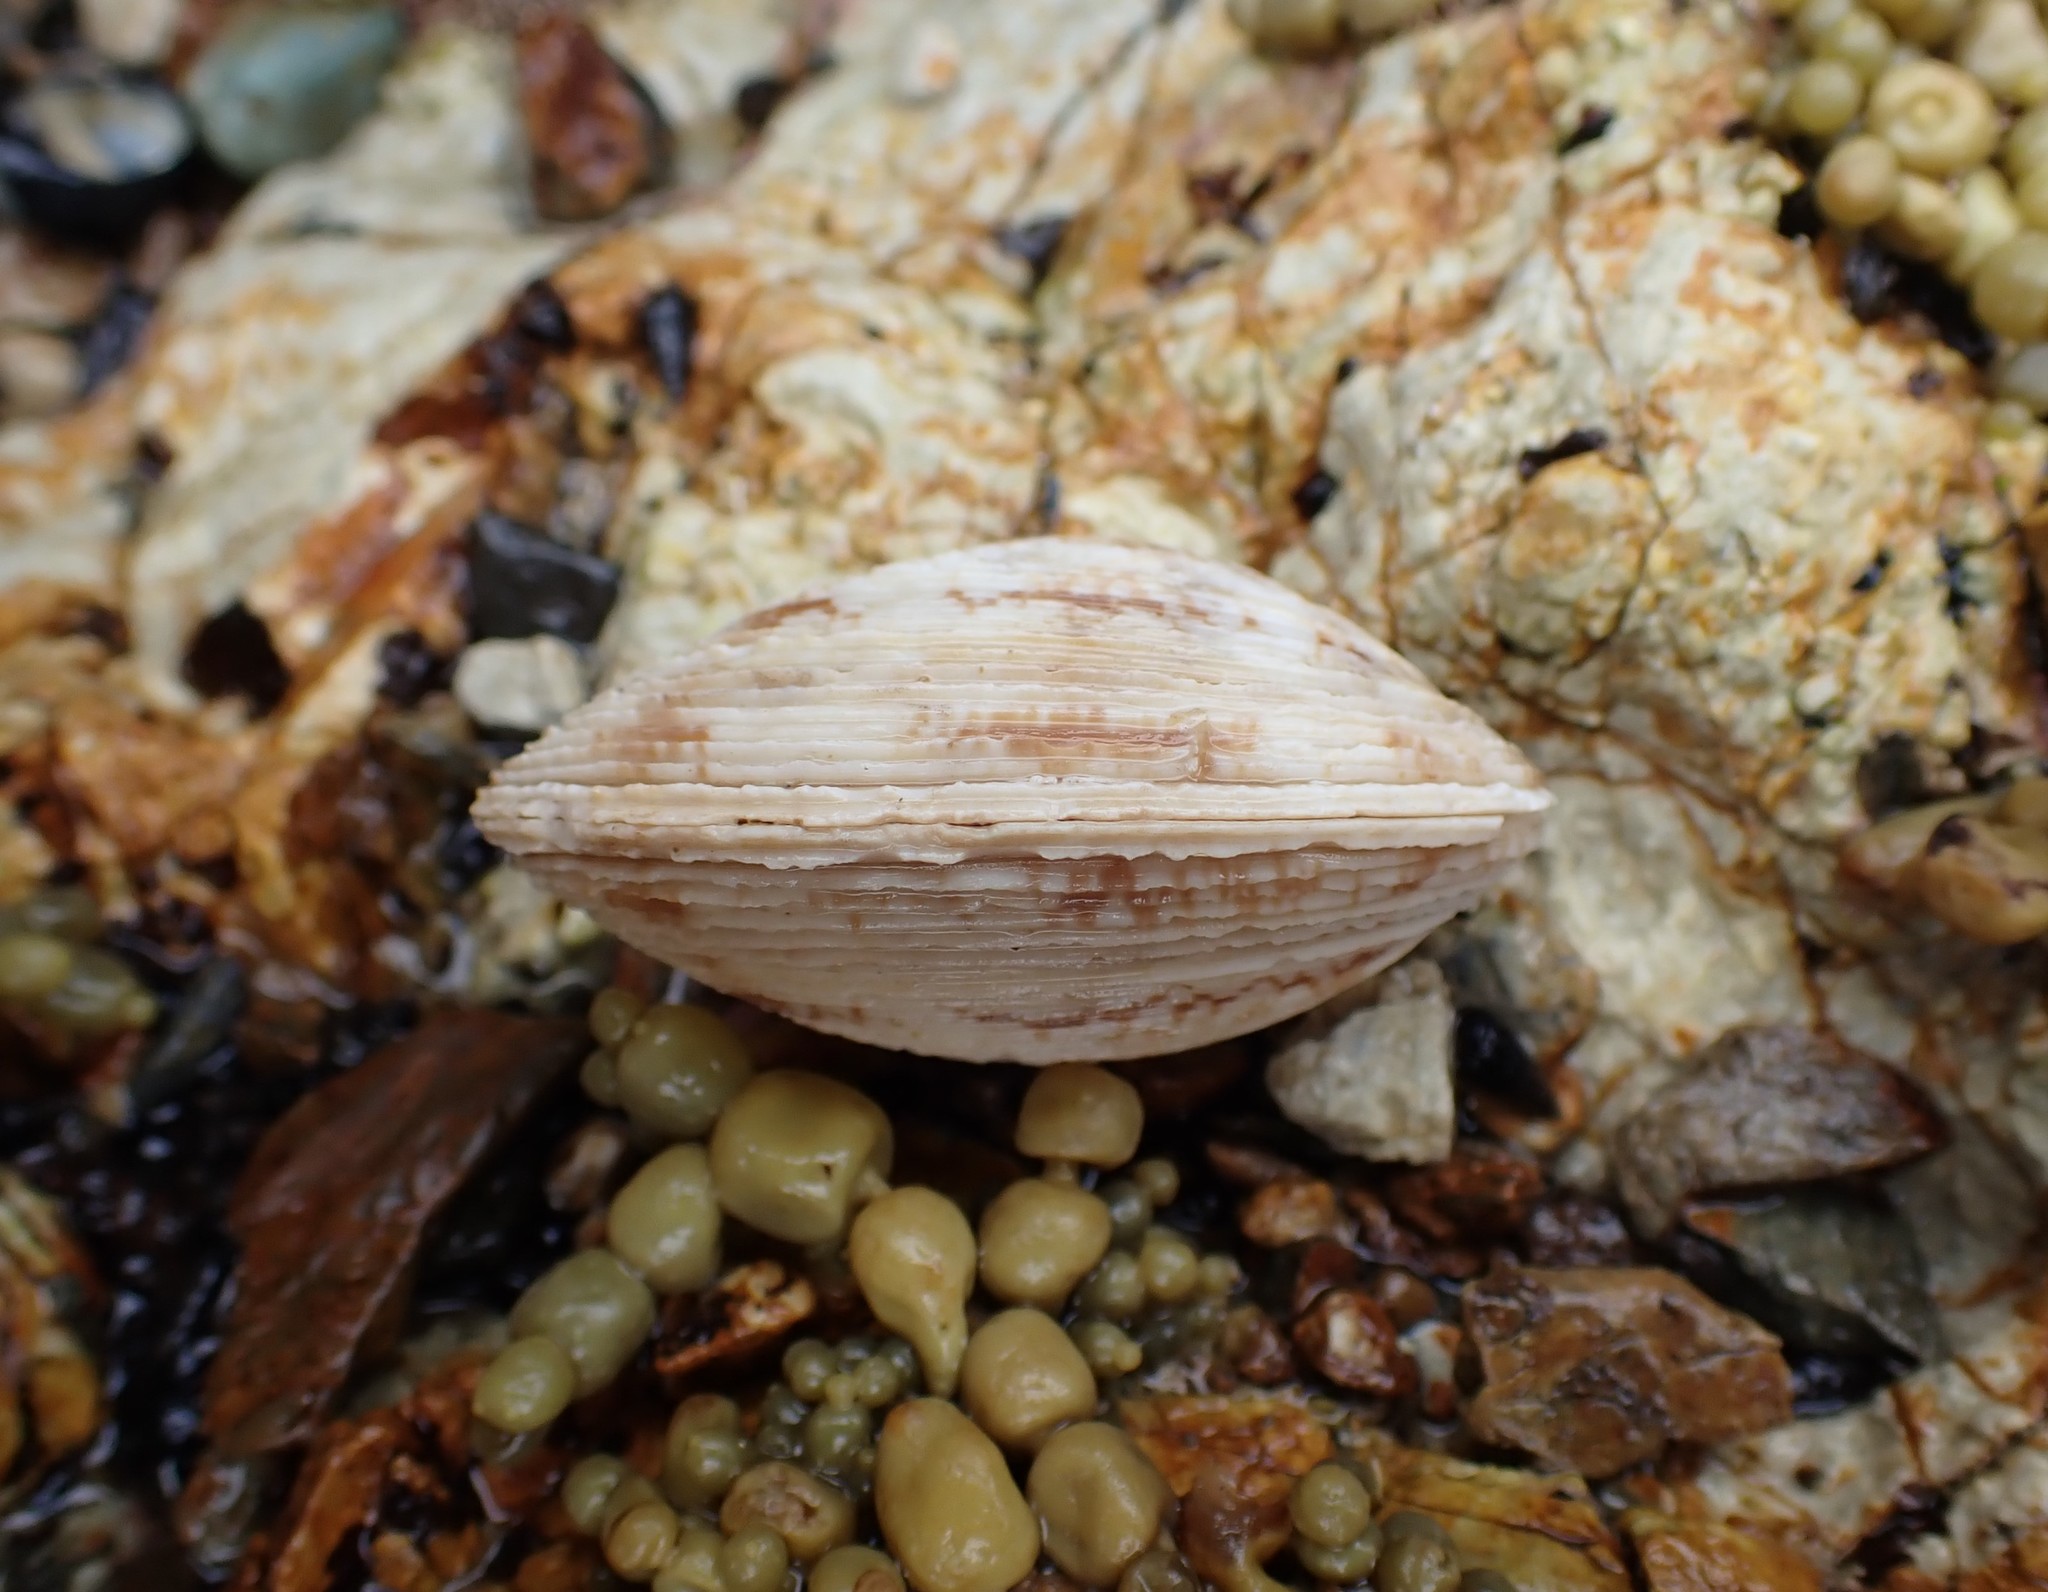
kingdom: Animalia
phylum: Mollusca
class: Bivalvia
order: Venerida
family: Veneridae
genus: Dosina
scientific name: Dosina mactracea
